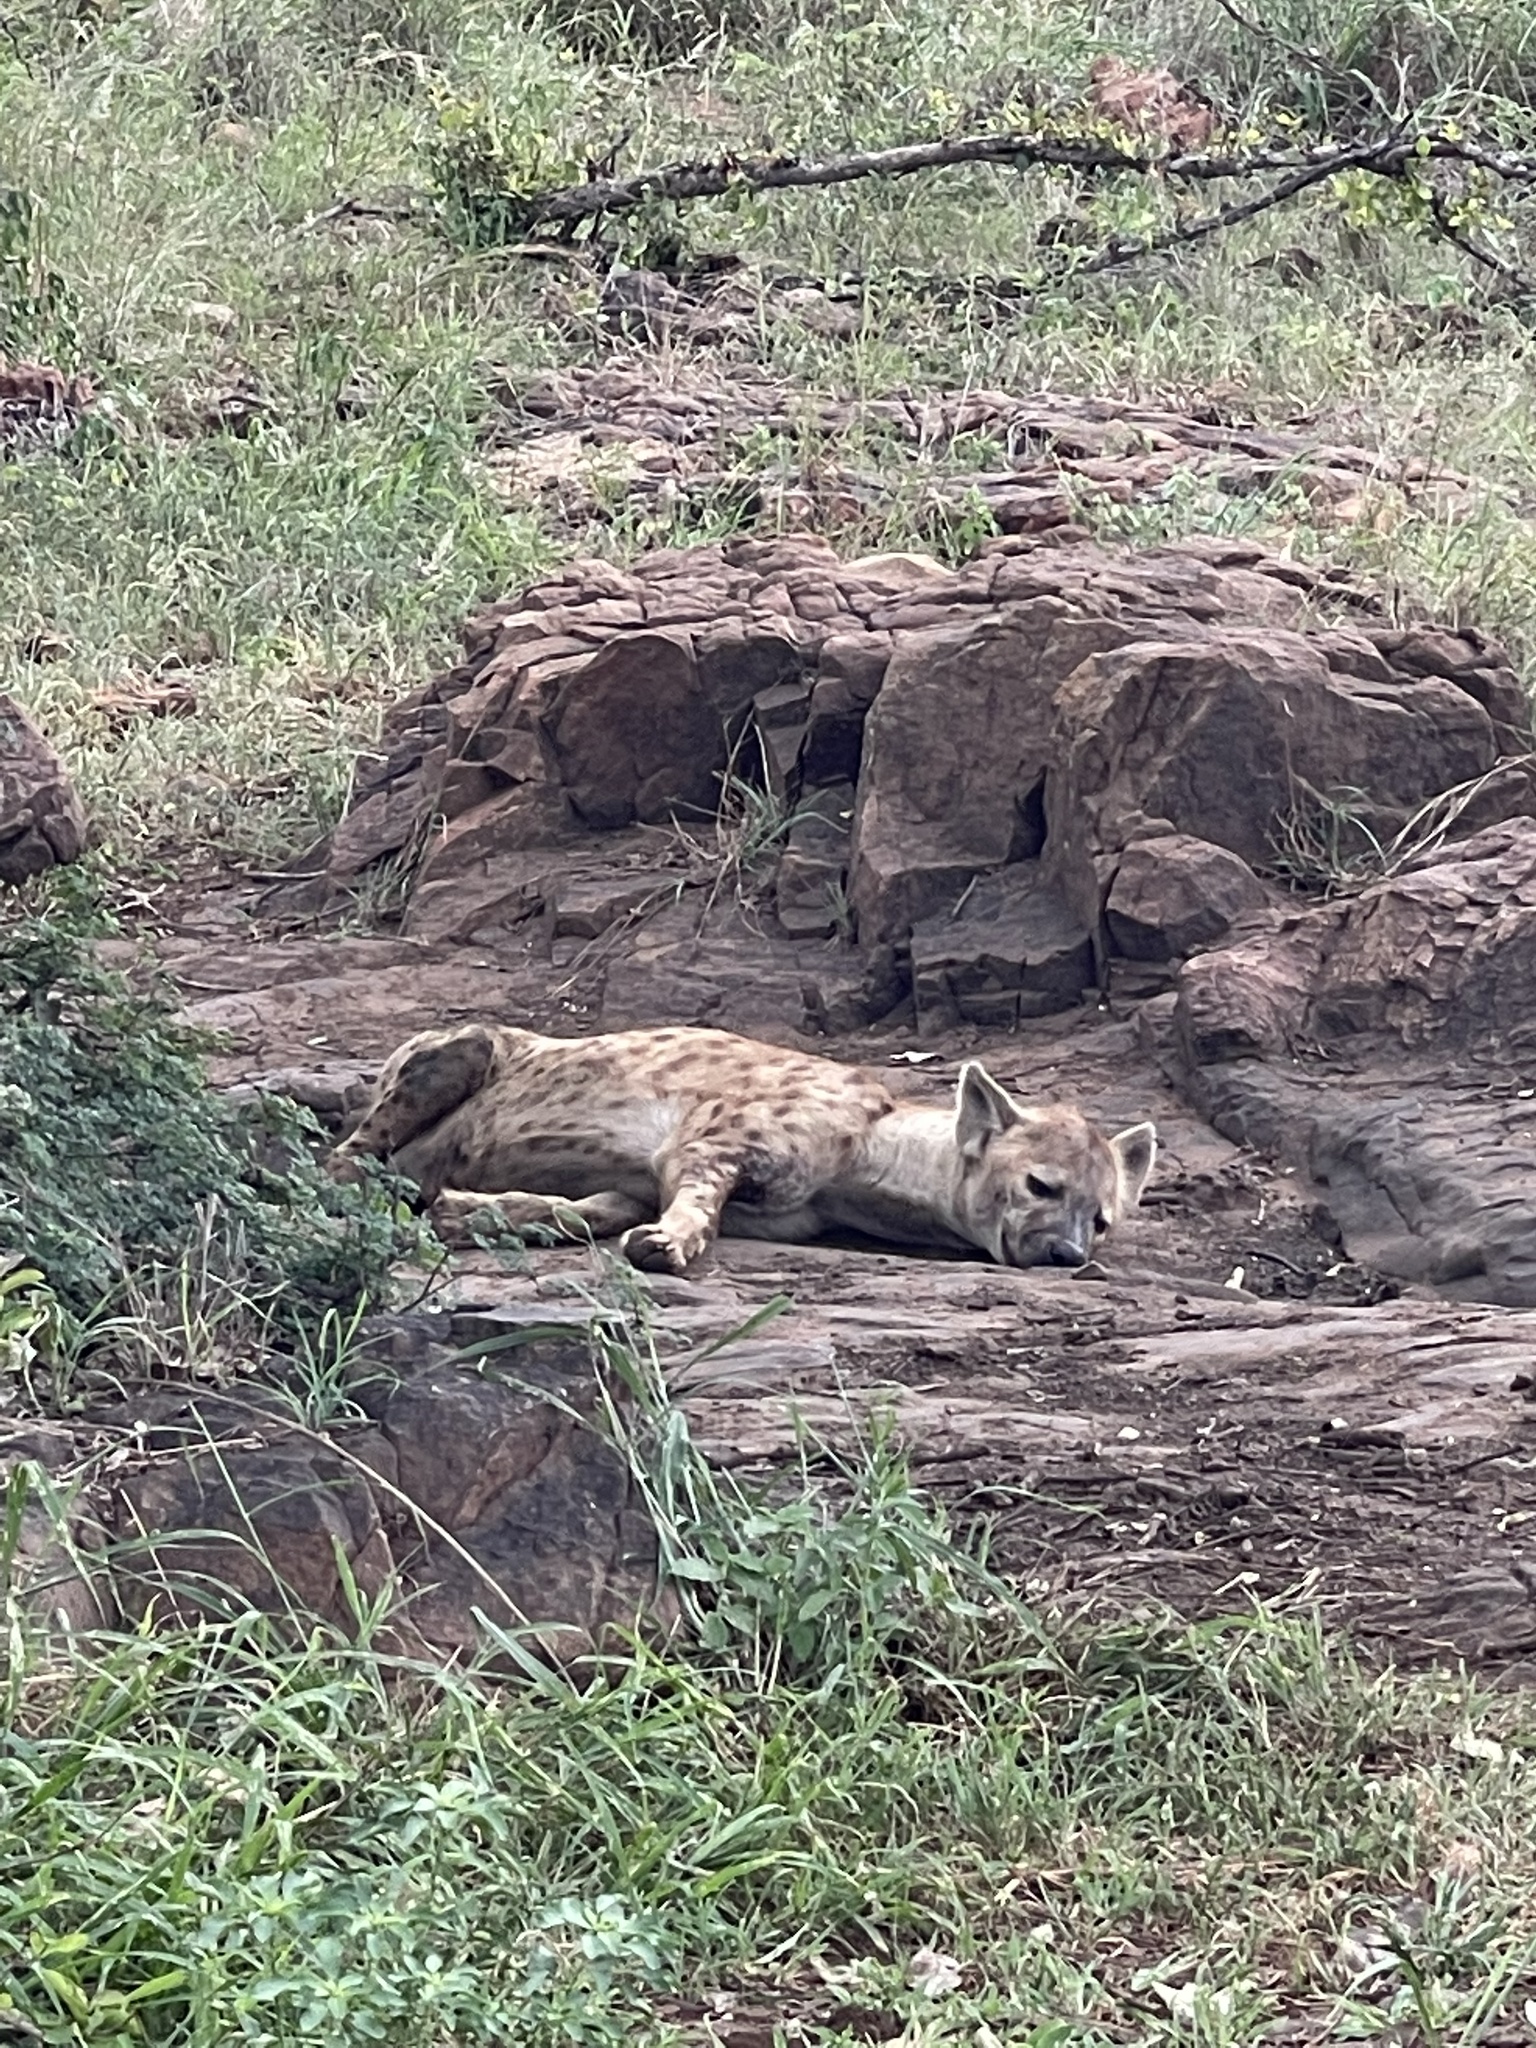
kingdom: Animalia
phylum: Chordata
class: Mammalia
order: Carnivora
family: Hyaenidae
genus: Crocuta
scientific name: Crocuta crocuta
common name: Spotted hyaena
